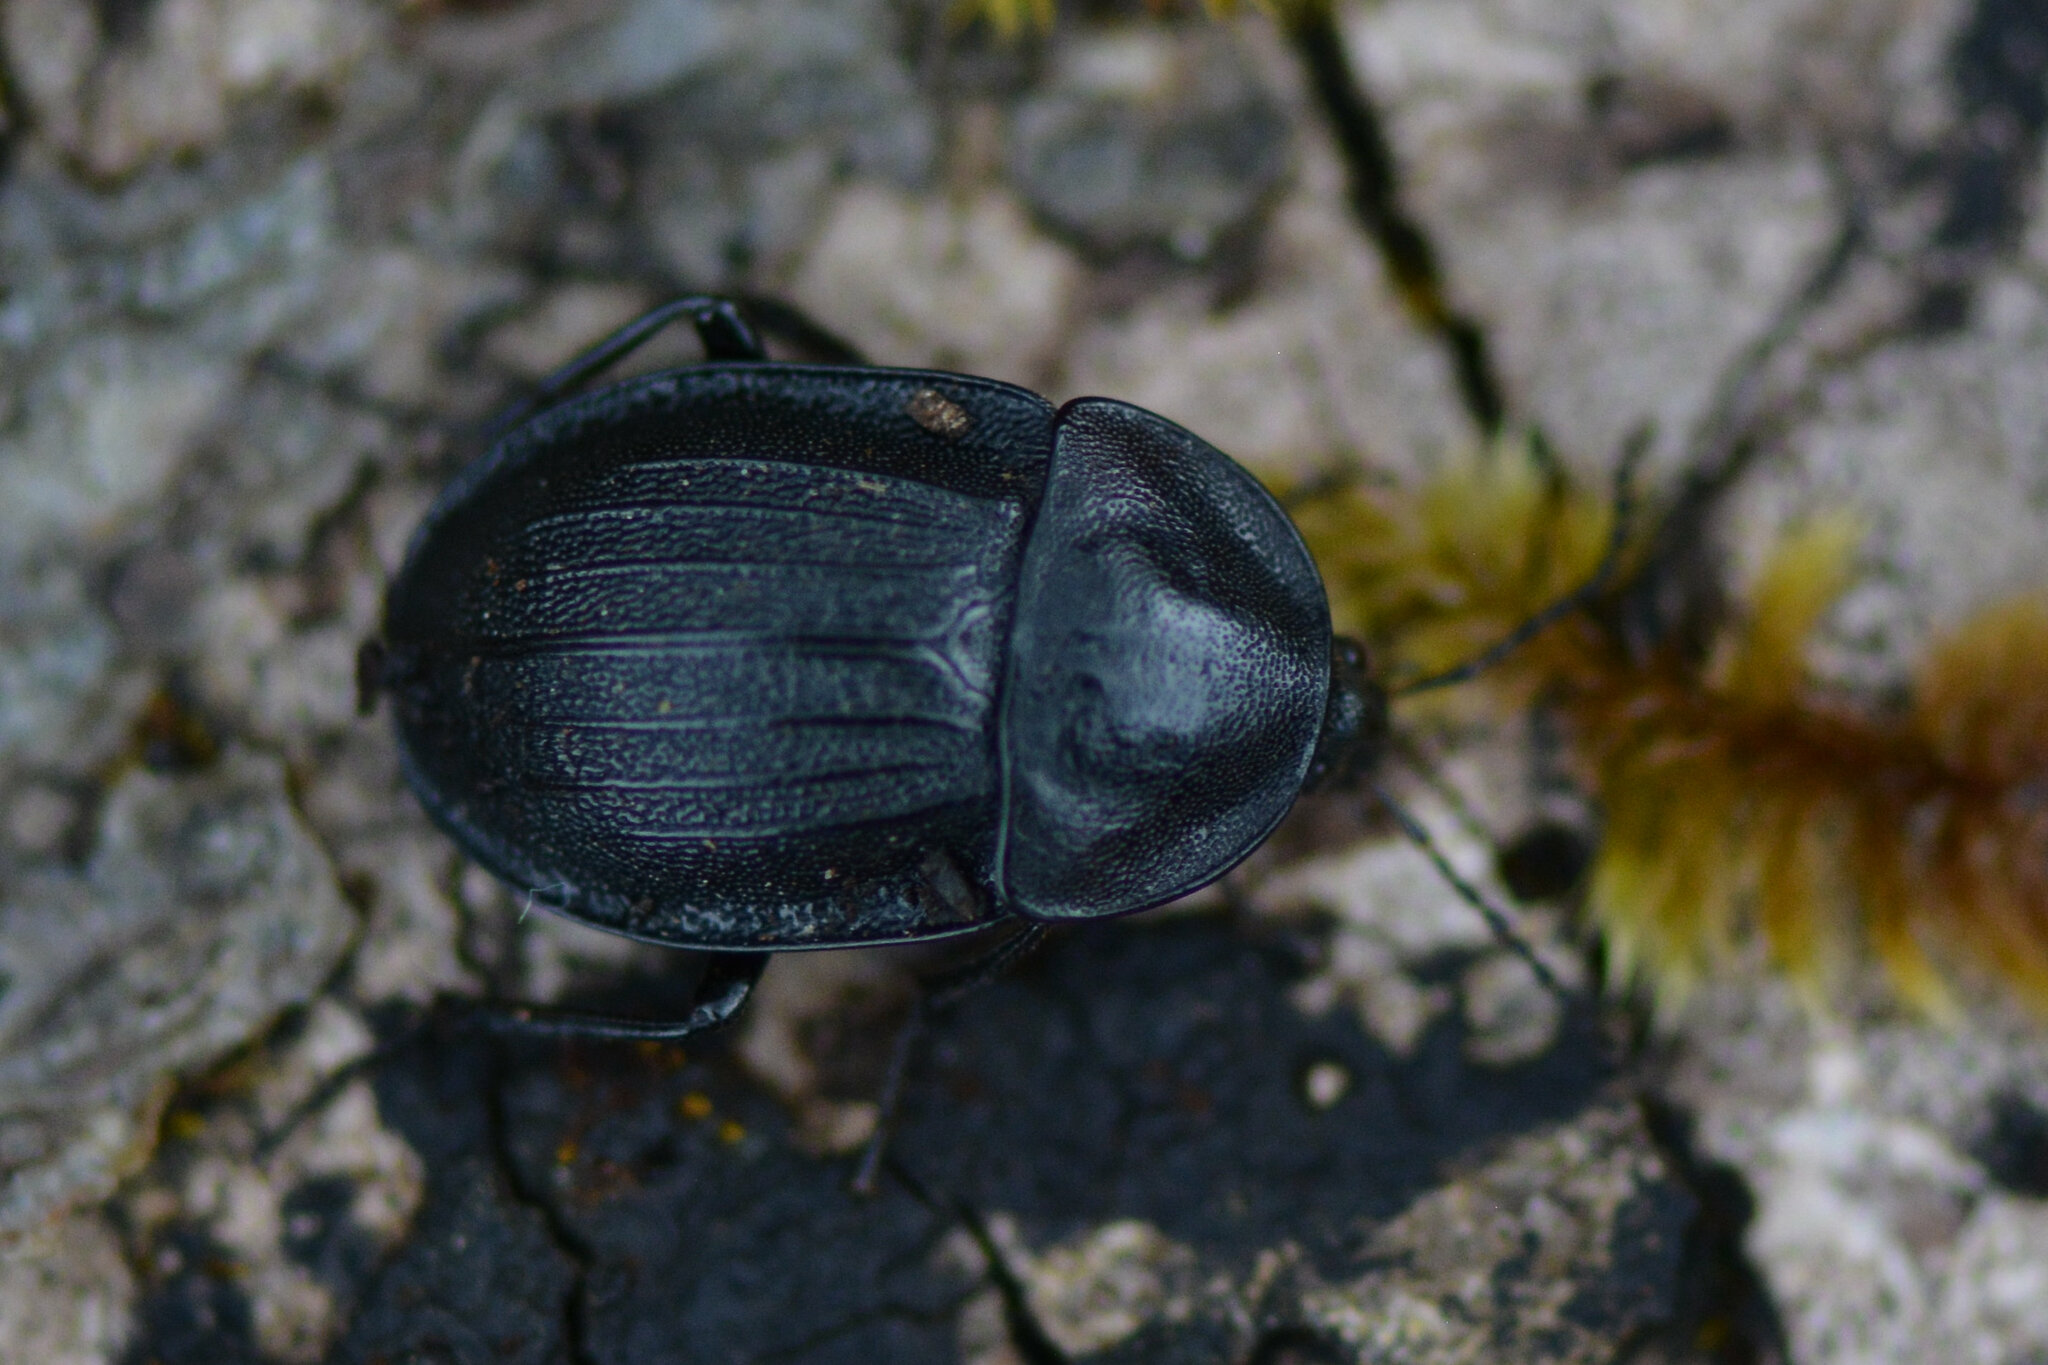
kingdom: Animalia
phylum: Arthropoda
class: Insecta
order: Coleoptera
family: Staphylinidae
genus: Silpha
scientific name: Silpha atrata
